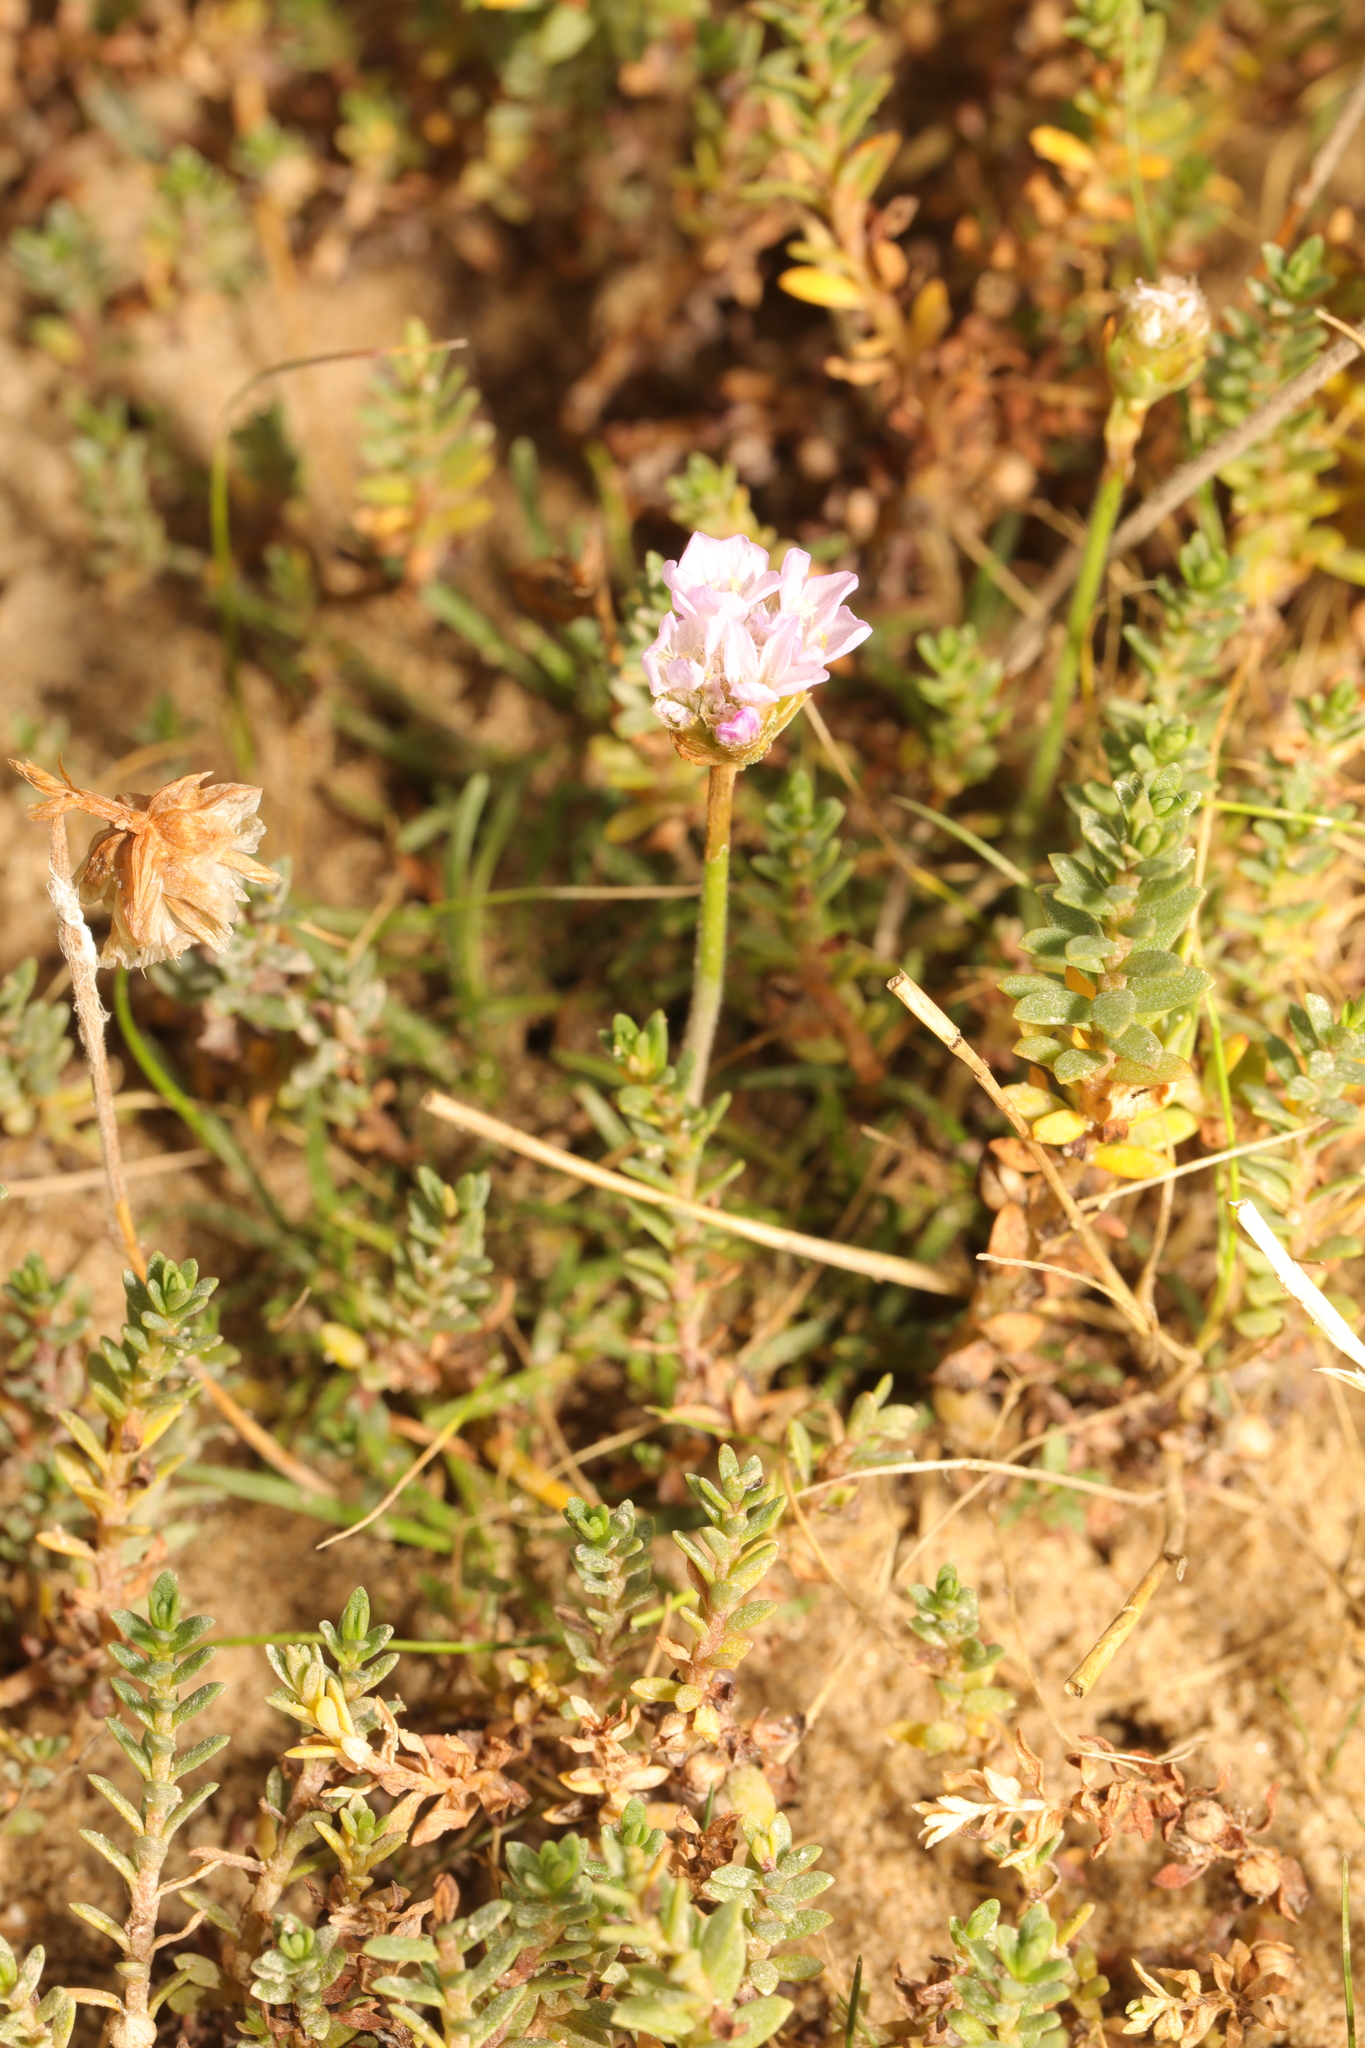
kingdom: Plantae
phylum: Tracheophyta
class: Magnoliopsida
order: Caryophyllales
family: Plumbaginaceae
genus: Armeria
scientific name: Armeria maritima
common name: Thrift
